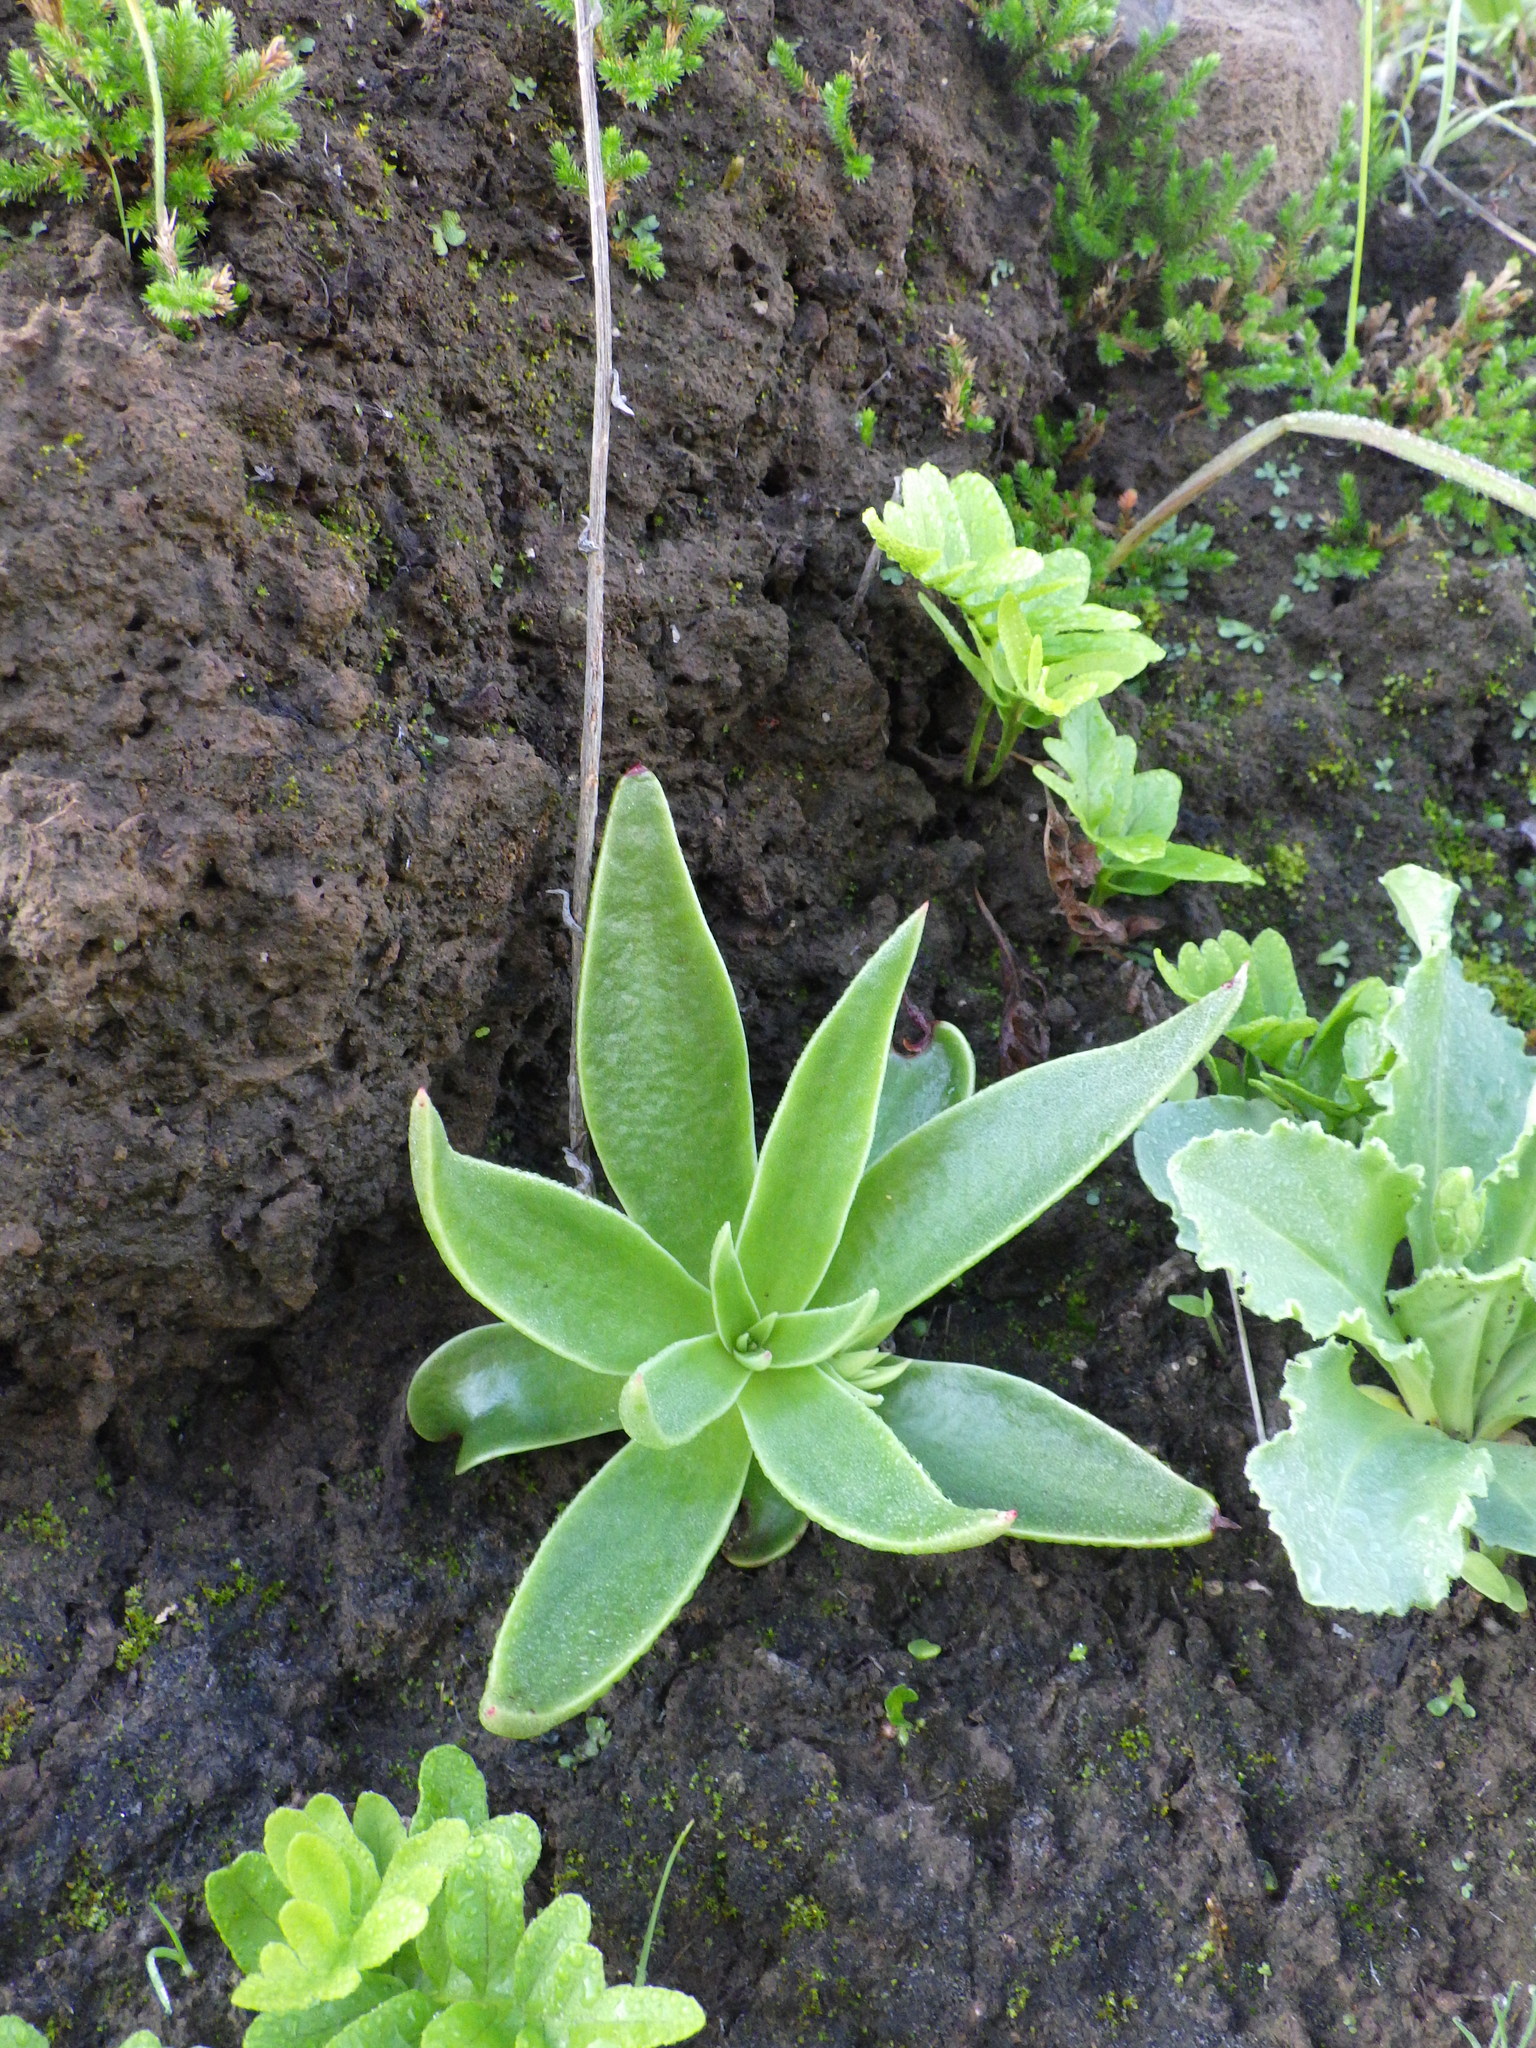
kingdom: Plantae
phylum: Tracheophyta
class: Magnoliopsida
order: Saxifragales
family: Crassulaceae
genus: Dudleya
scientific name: Dudleya lanceolata
